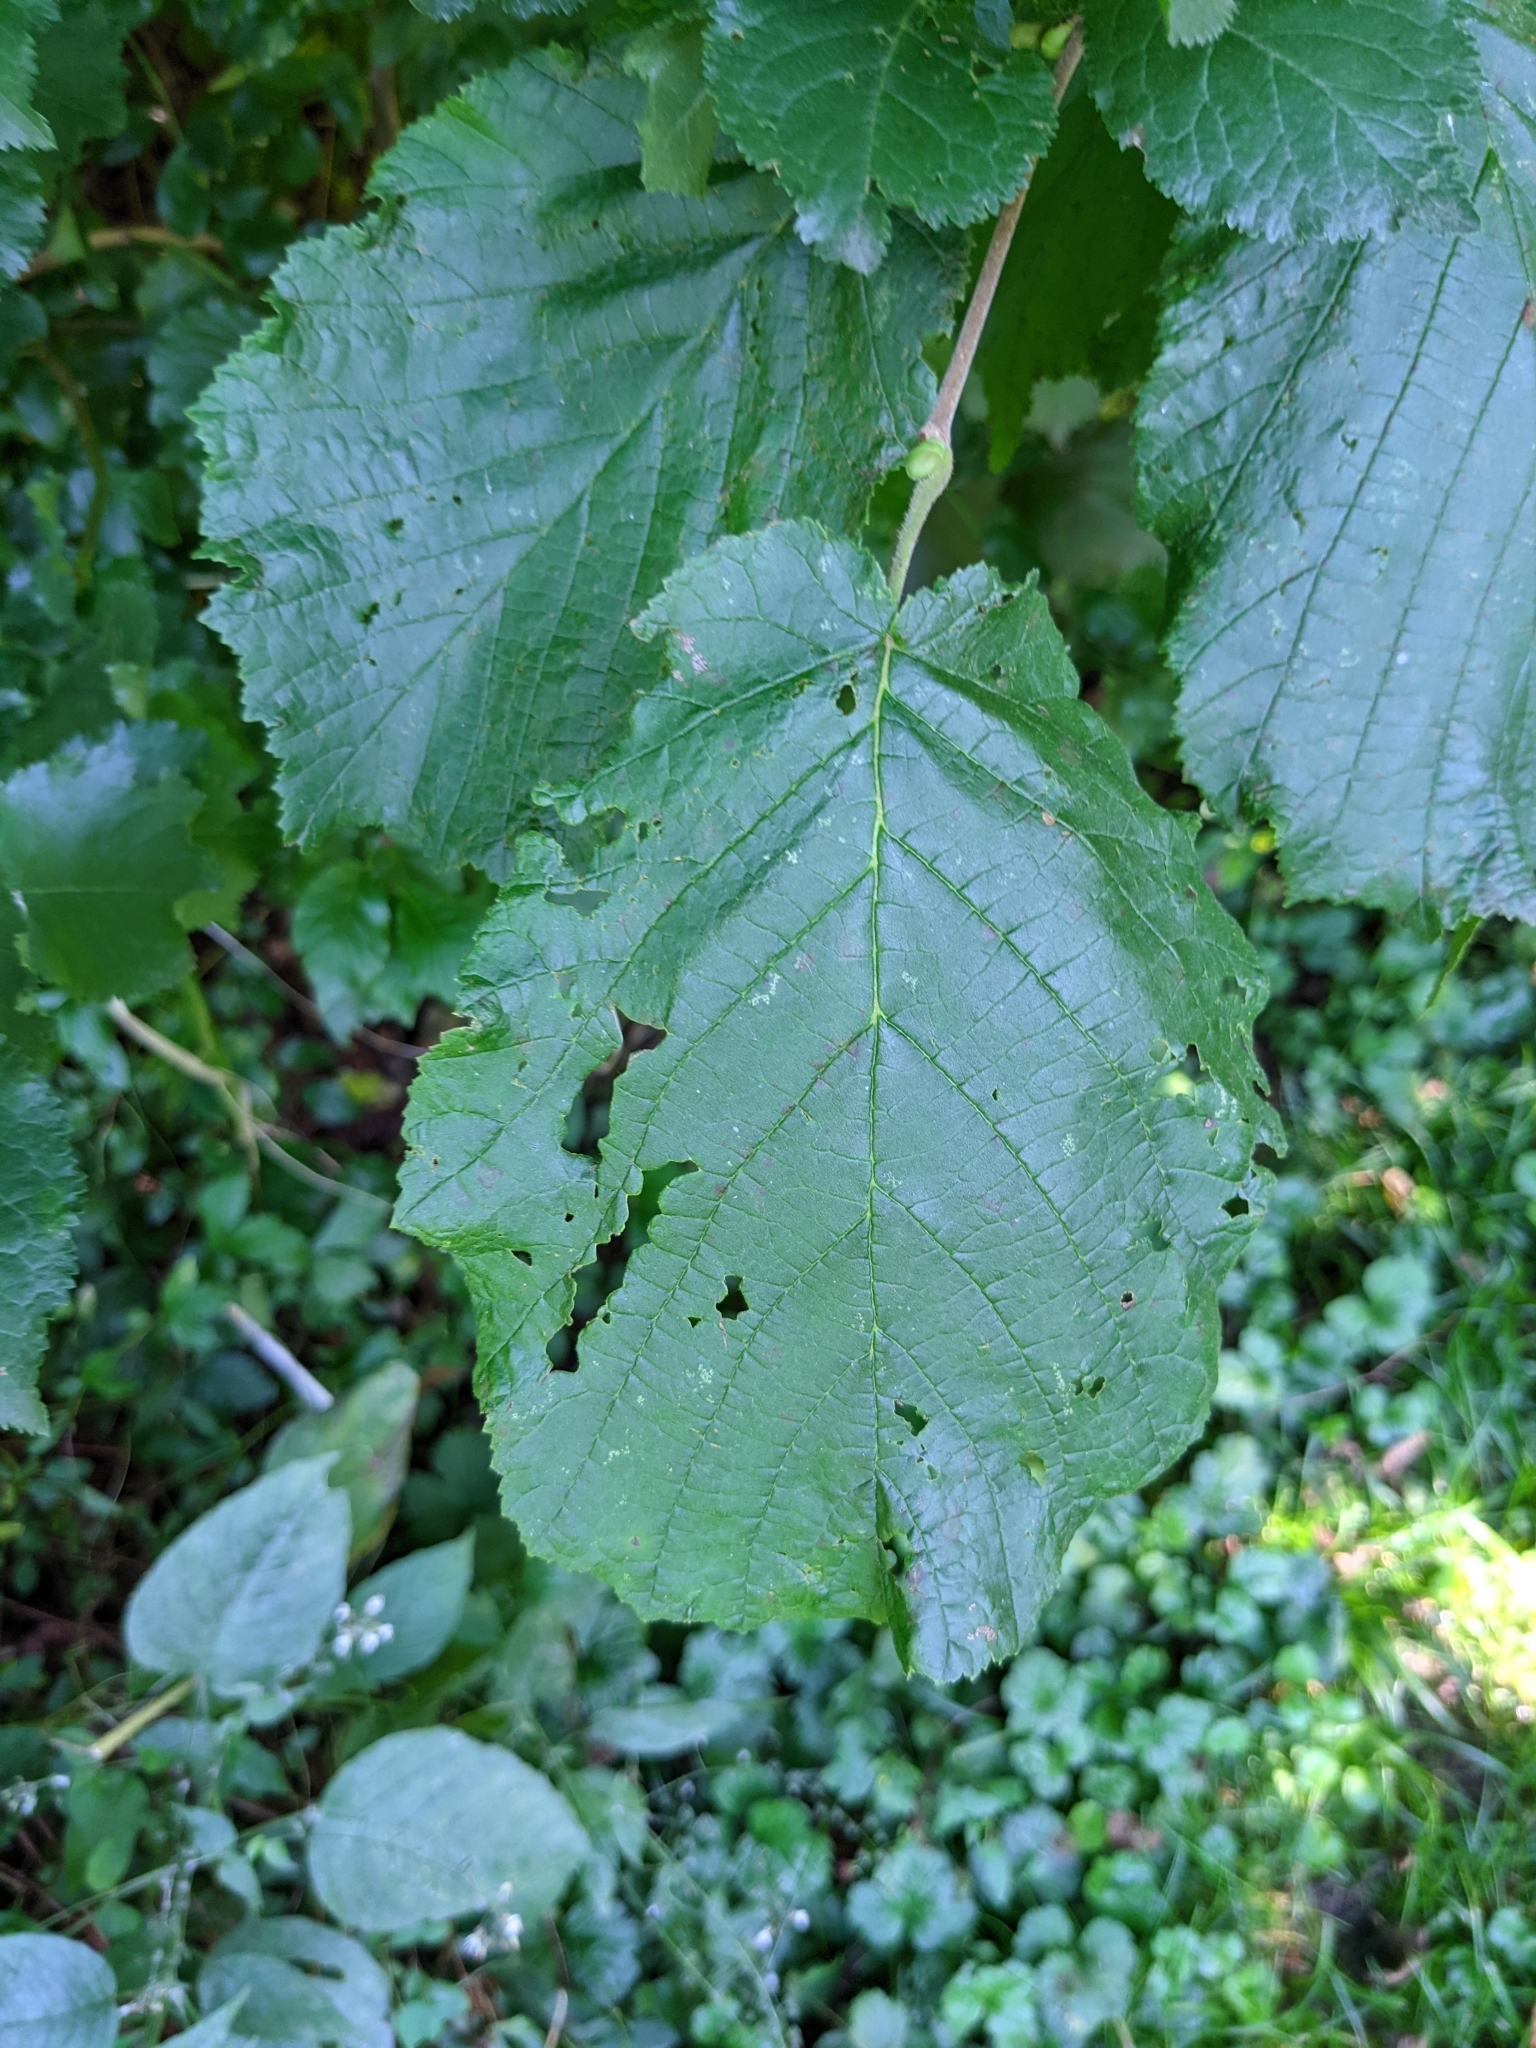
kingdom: Plantae
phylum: Tracheophyta
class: Magnoliopsida
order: Fagales
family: Betulaceae
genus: Corylus
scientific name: Corylus avellana
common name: European hazel
